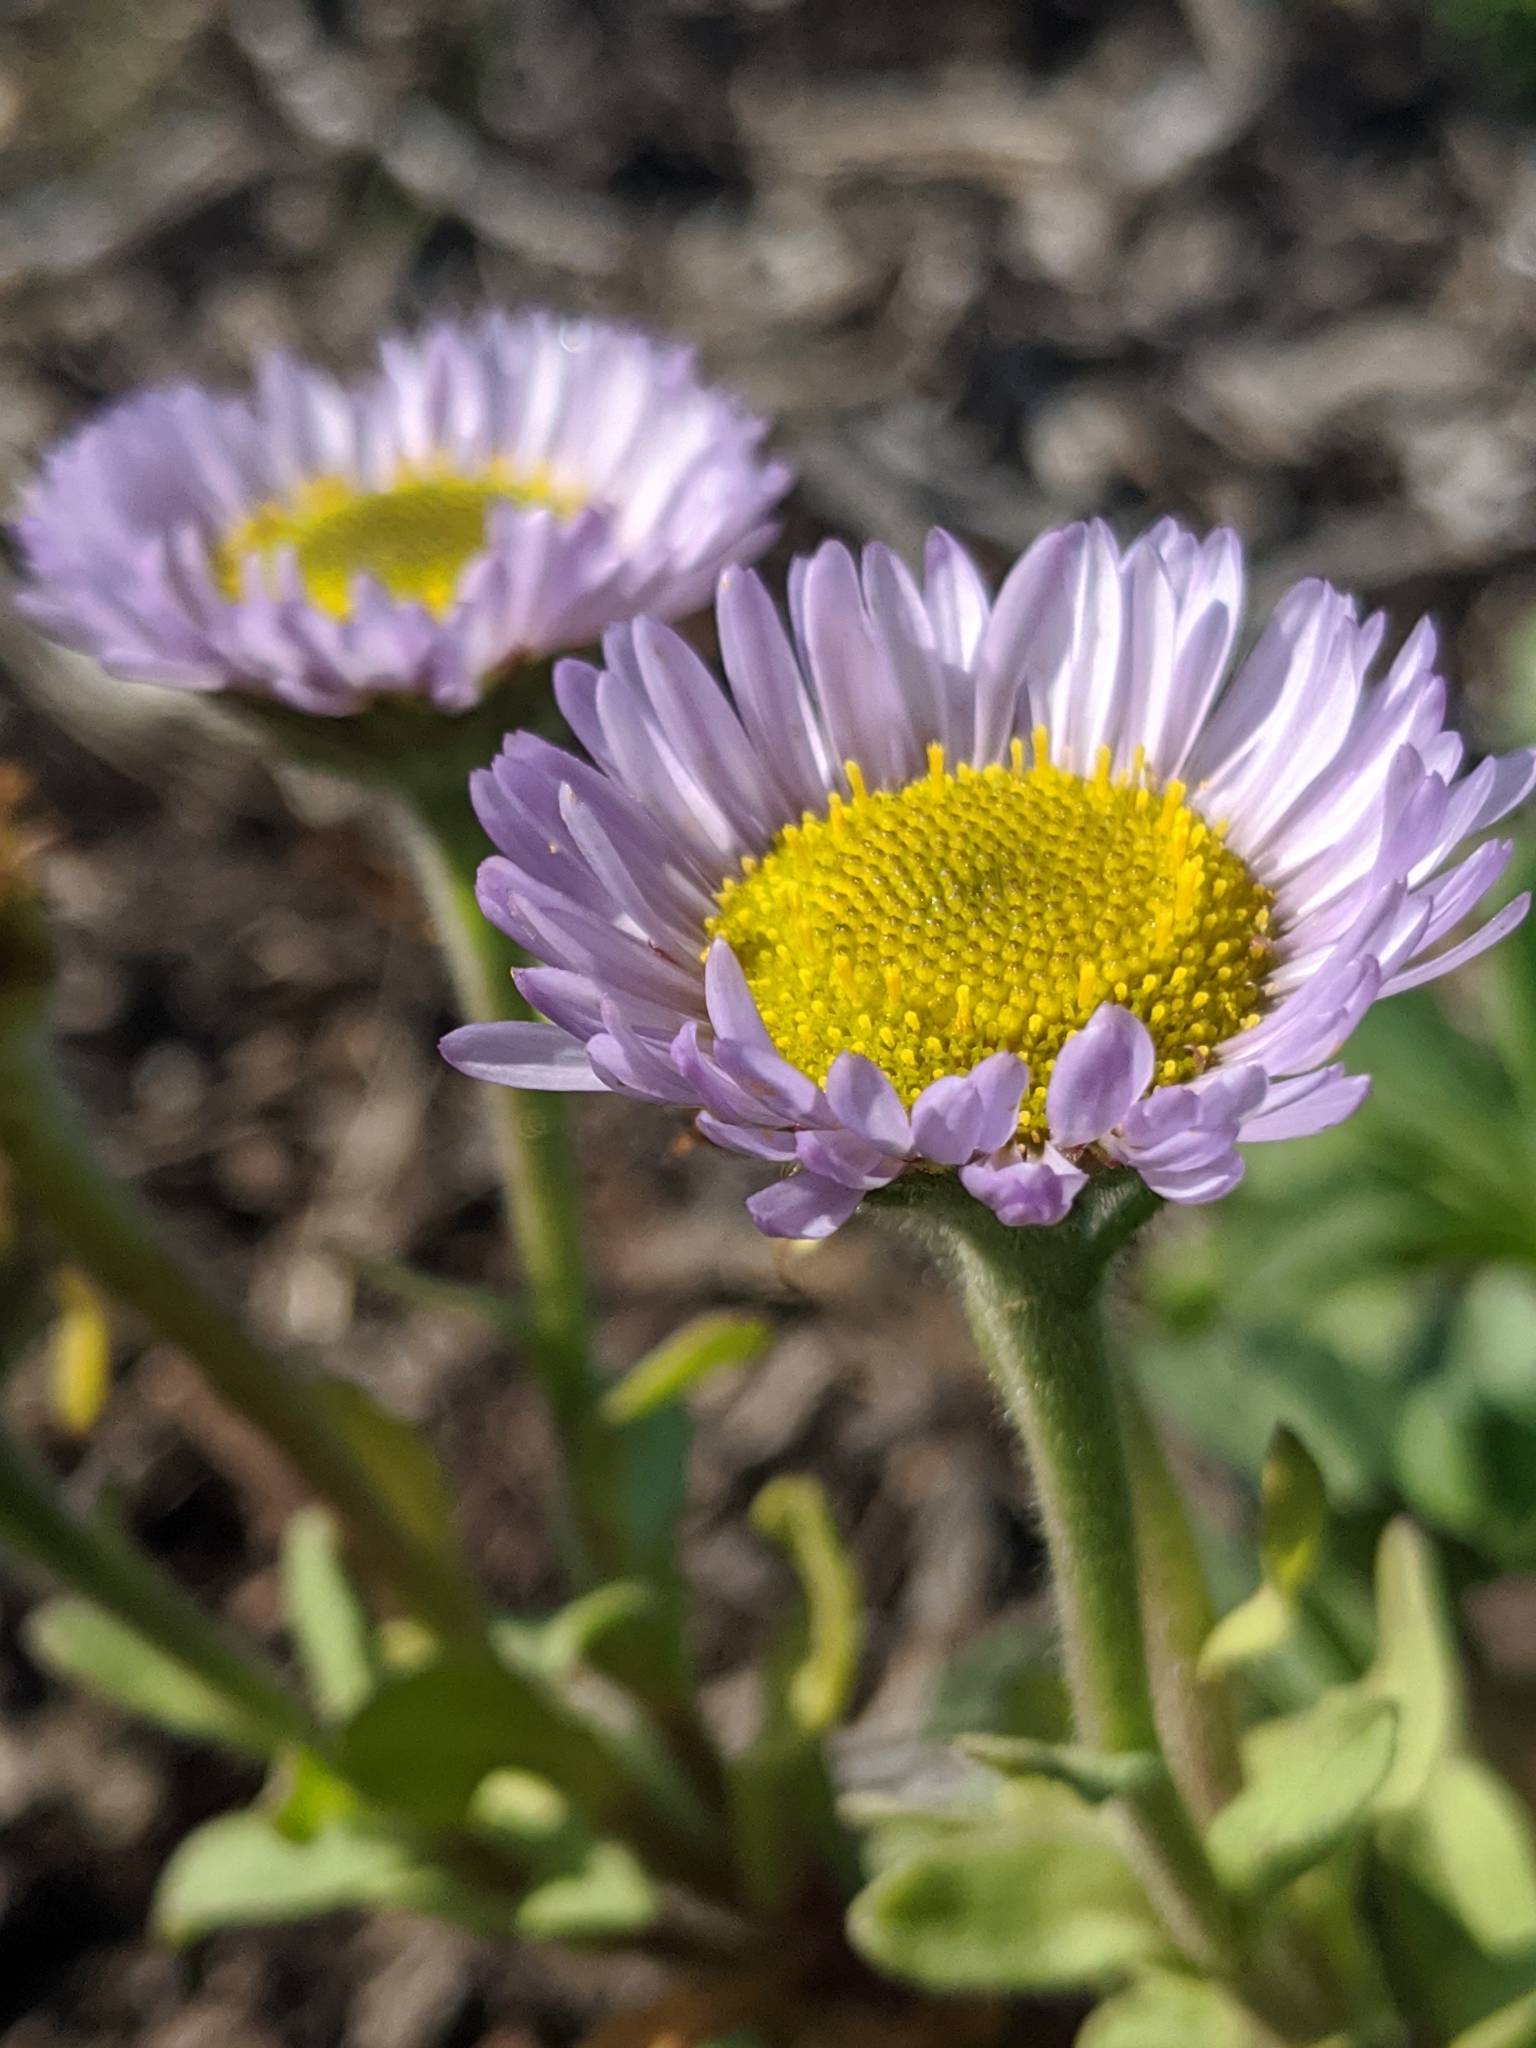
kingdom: Plantae
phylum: Tracheophyta
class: Magnoliopsida
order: Asterales
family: Asteraceae
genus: Erigeron
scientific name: Erigeron glaucus
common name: Seaside daisy
